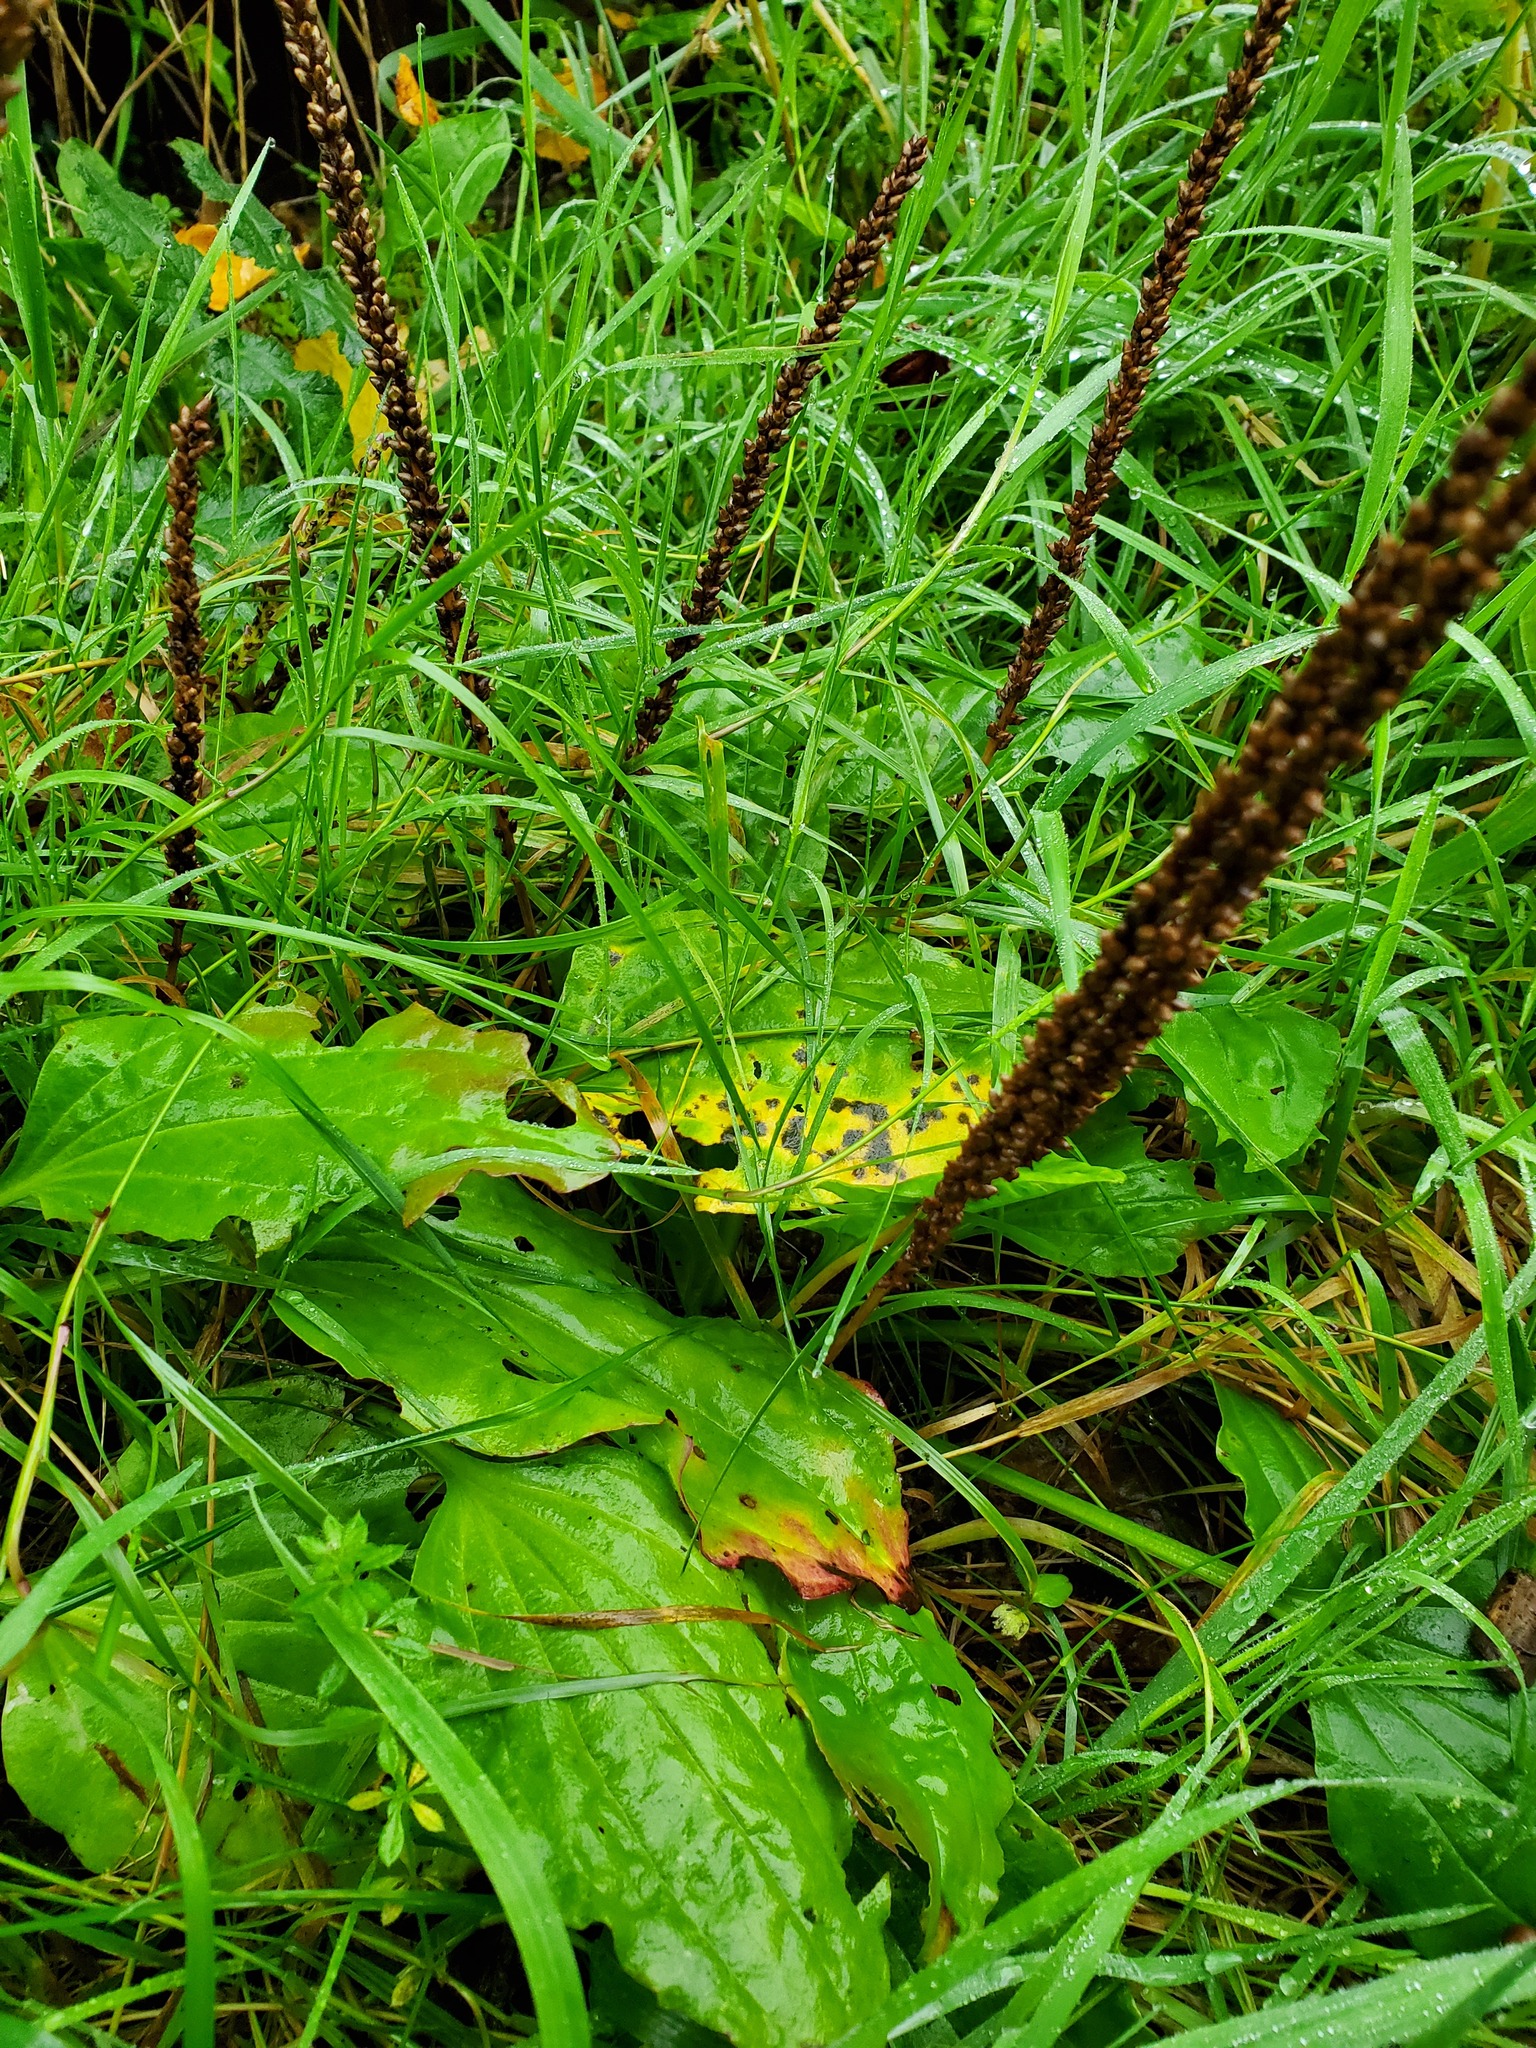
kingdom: Plantae
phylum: Tracheophyta
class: Magnoliopsida
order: Lamiales
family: Plantaginaceae
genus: Plantago
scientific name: Plantago major
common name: Common plantain
